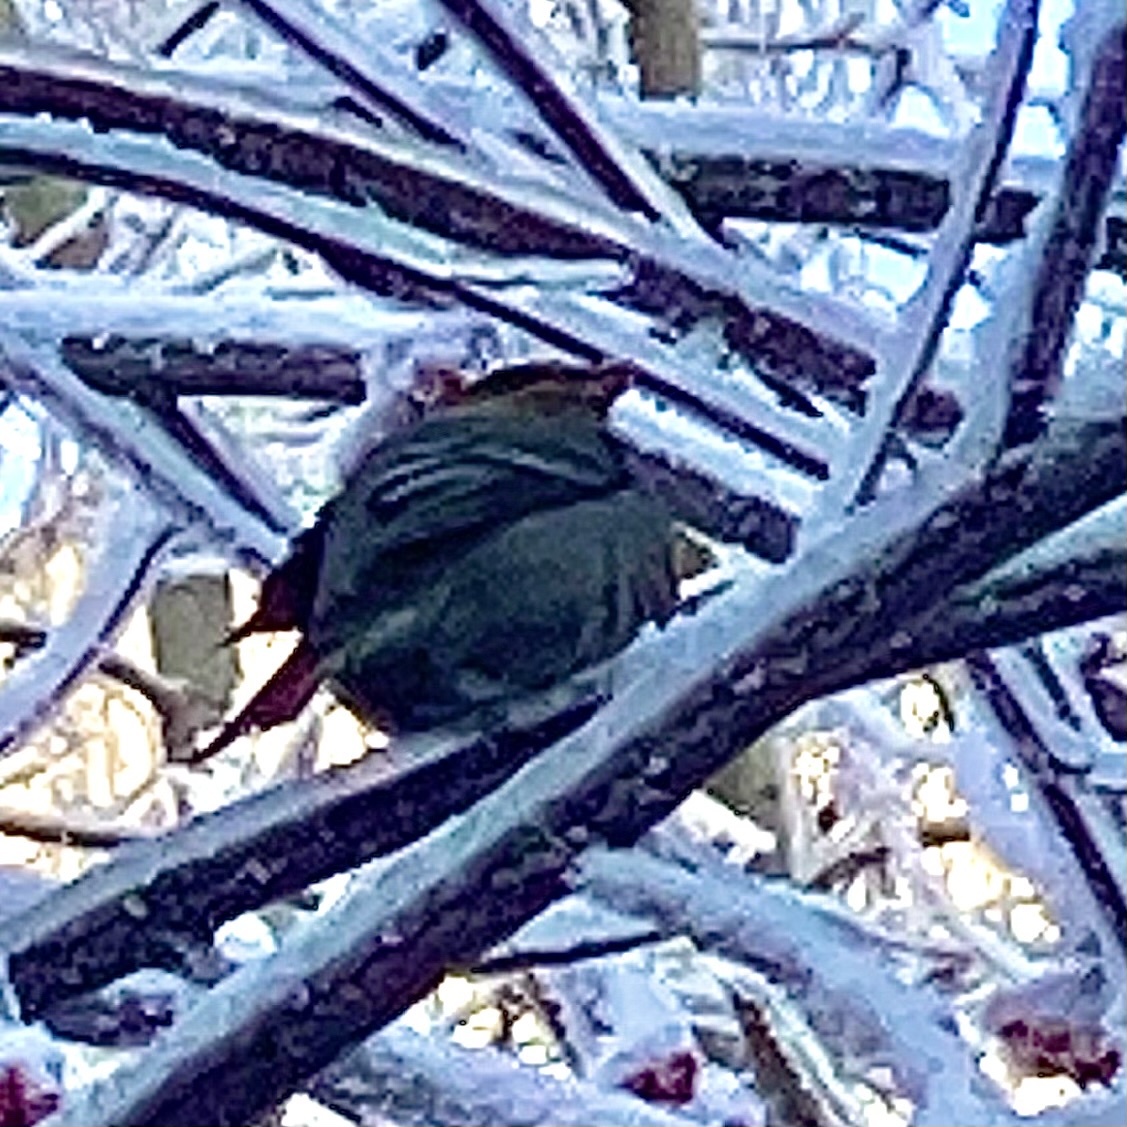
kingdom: Animalia
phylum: Chordata
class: Aves
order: Passeriformes
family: Fringillidae
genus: Pinicola
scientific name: Pinicola enucleator
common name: Pine grosbeak
